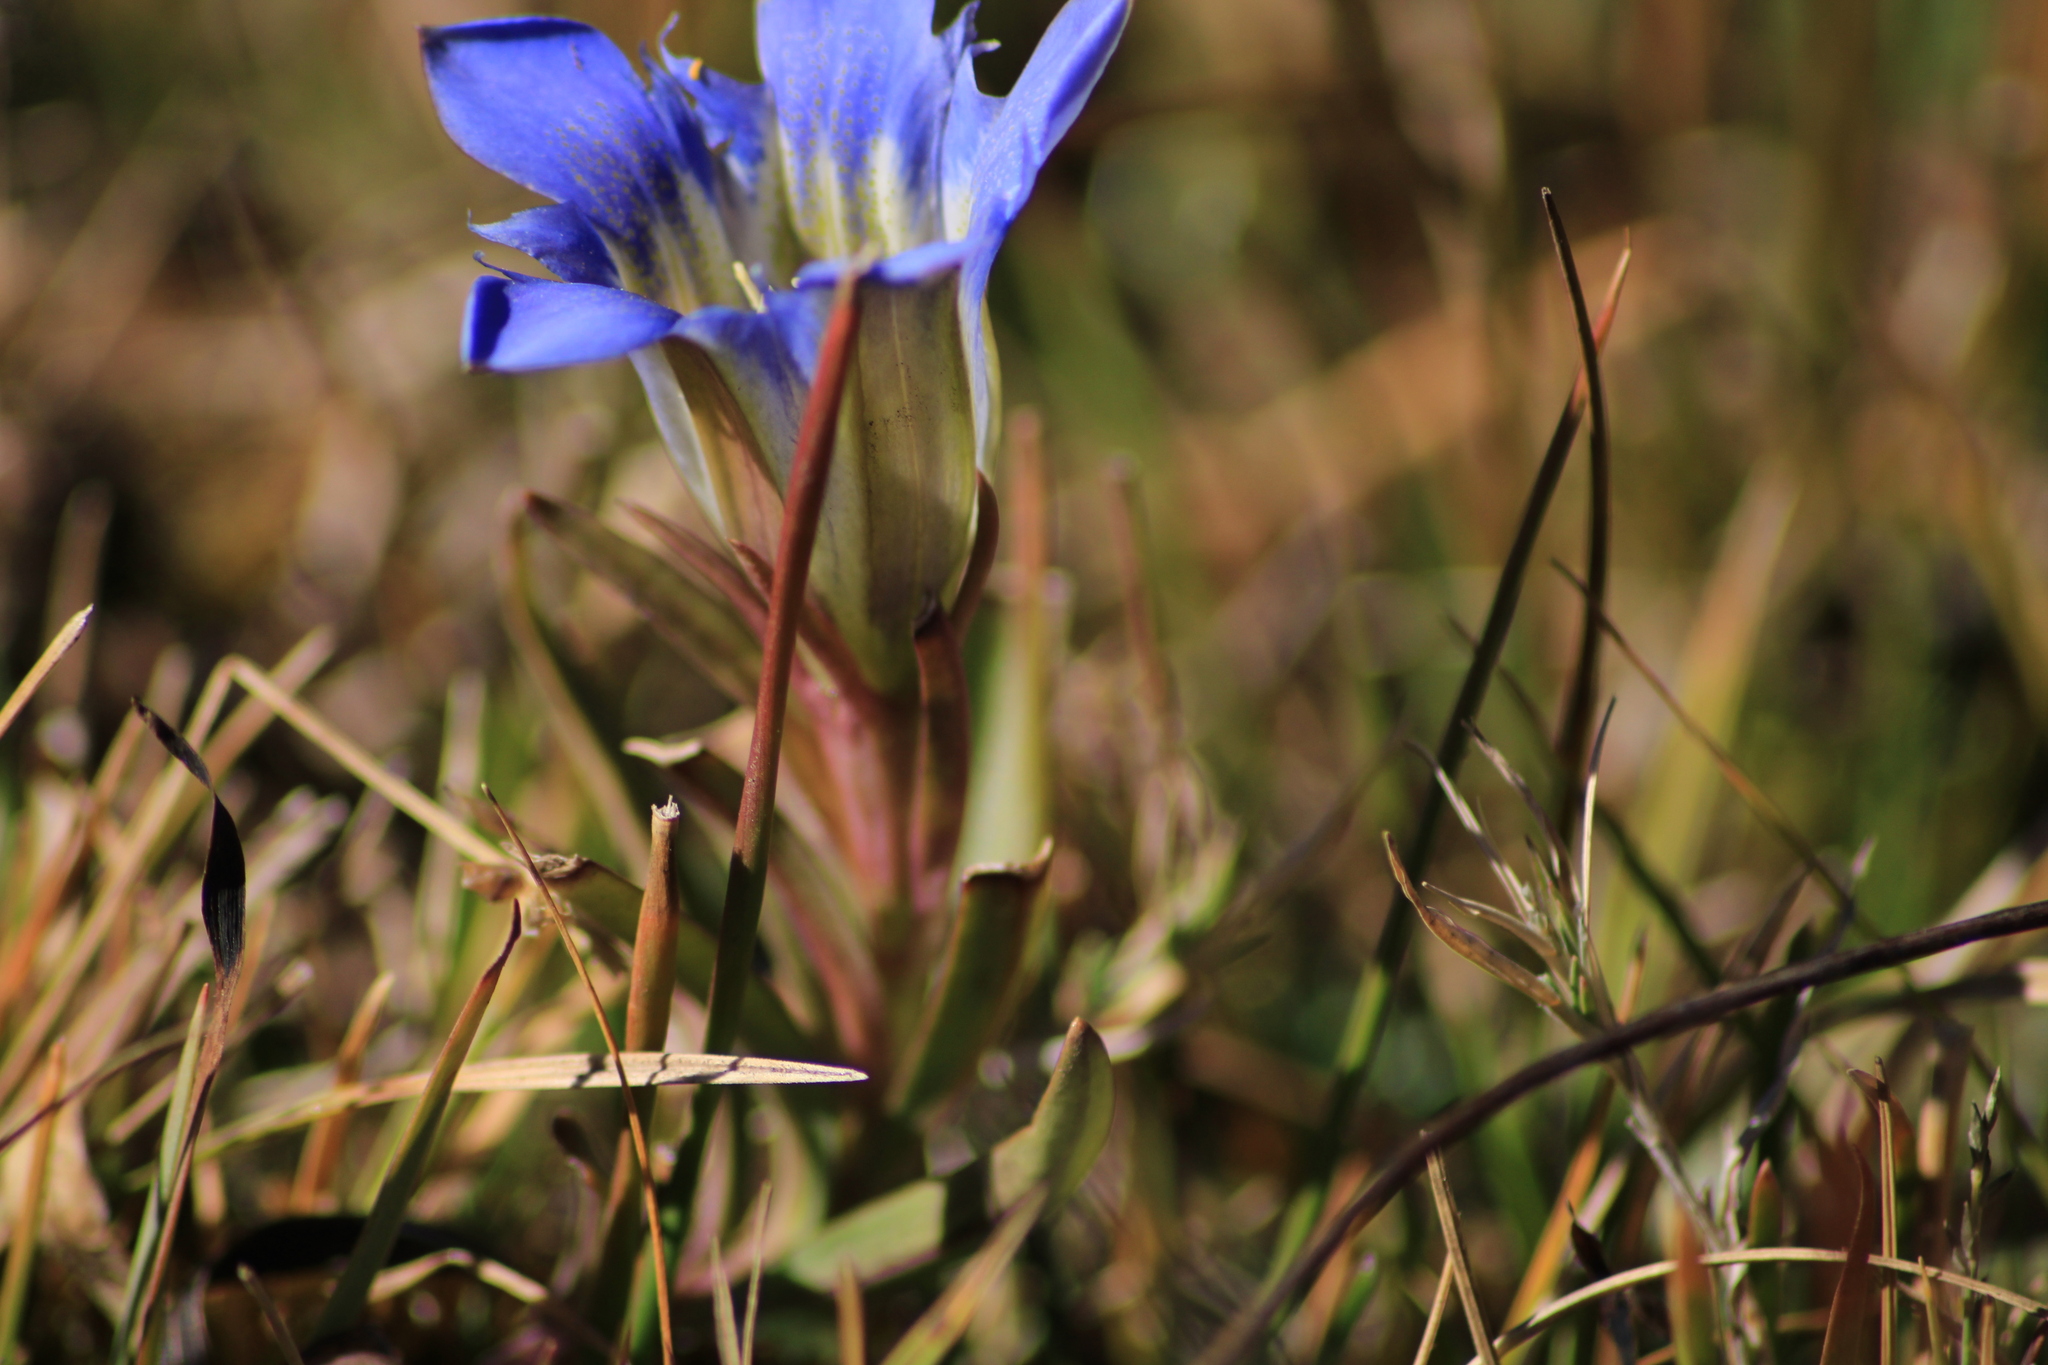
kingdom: Plantae
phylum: Tracheophyta
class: Magnoliopsida
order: Gentianales
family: Gentianaceae
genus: Gentiana
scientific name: Gentiana bicuspidata
